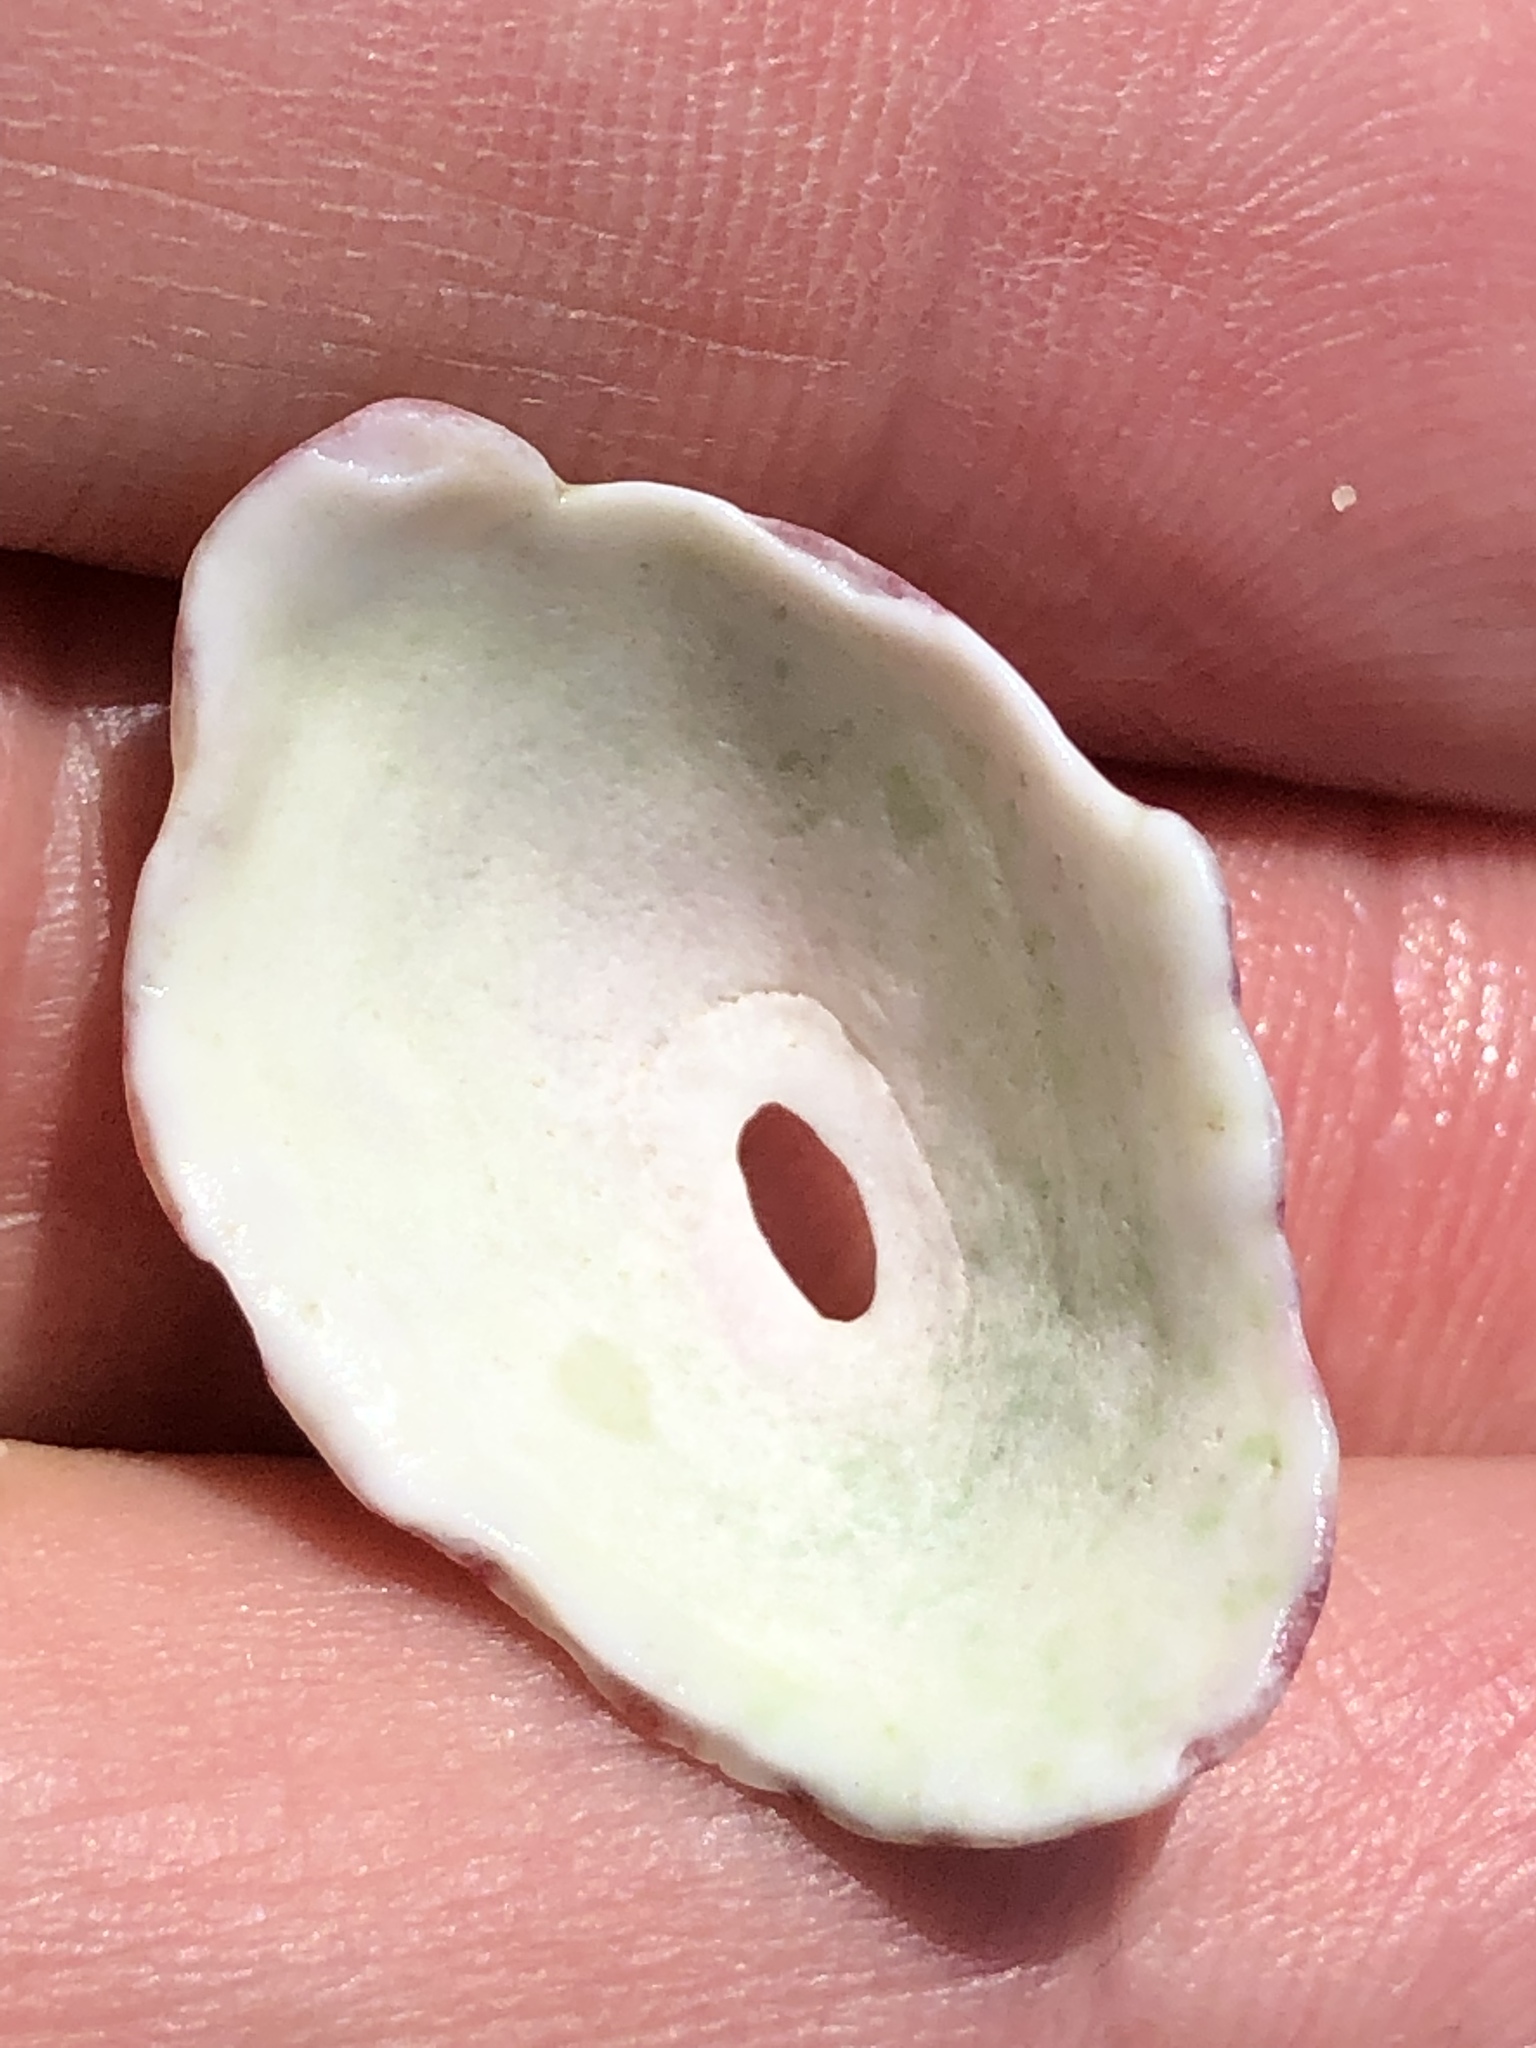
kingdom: Animalia
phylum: Mollusca
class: Gastropoda
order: Lepetellida
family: Fissurellidae
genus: Fissurella
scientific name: Fissurella volcano
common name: Volcano keyhole limpet
